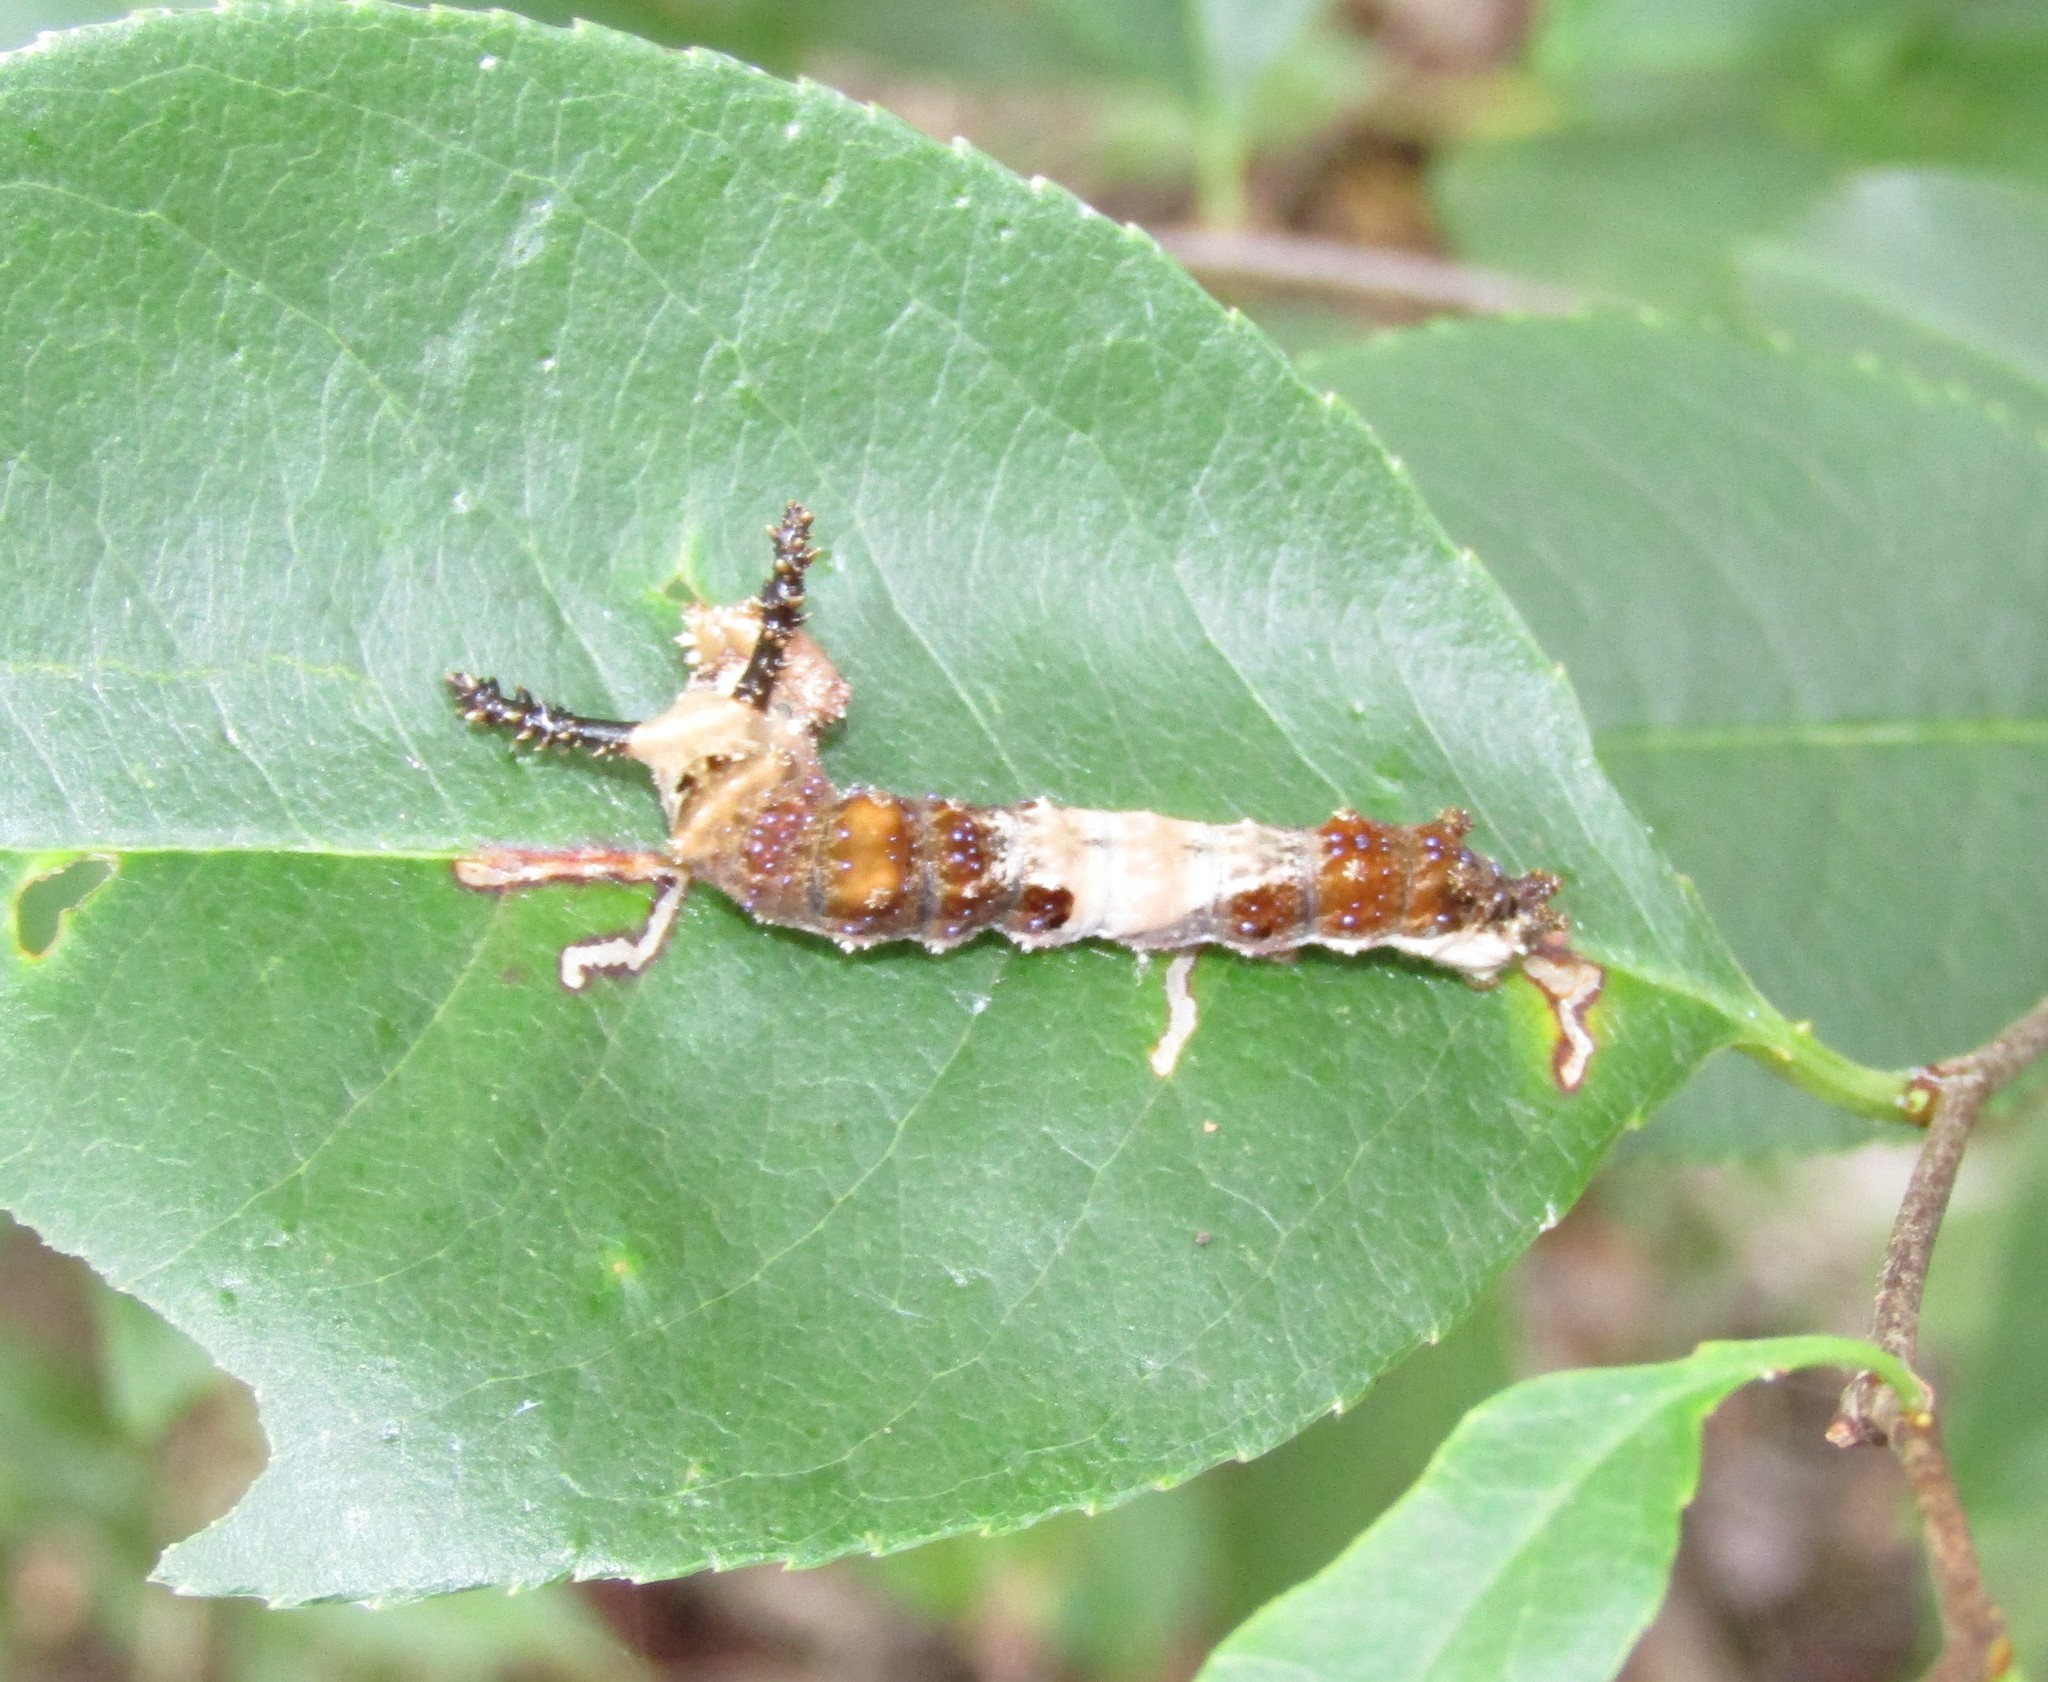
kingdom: Animalia
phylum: Arthropoda
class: Insecta
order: Lepidoptera
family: Nymphalidae
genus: Limenitis
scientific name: Limenitis archippus
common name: Viceroy
